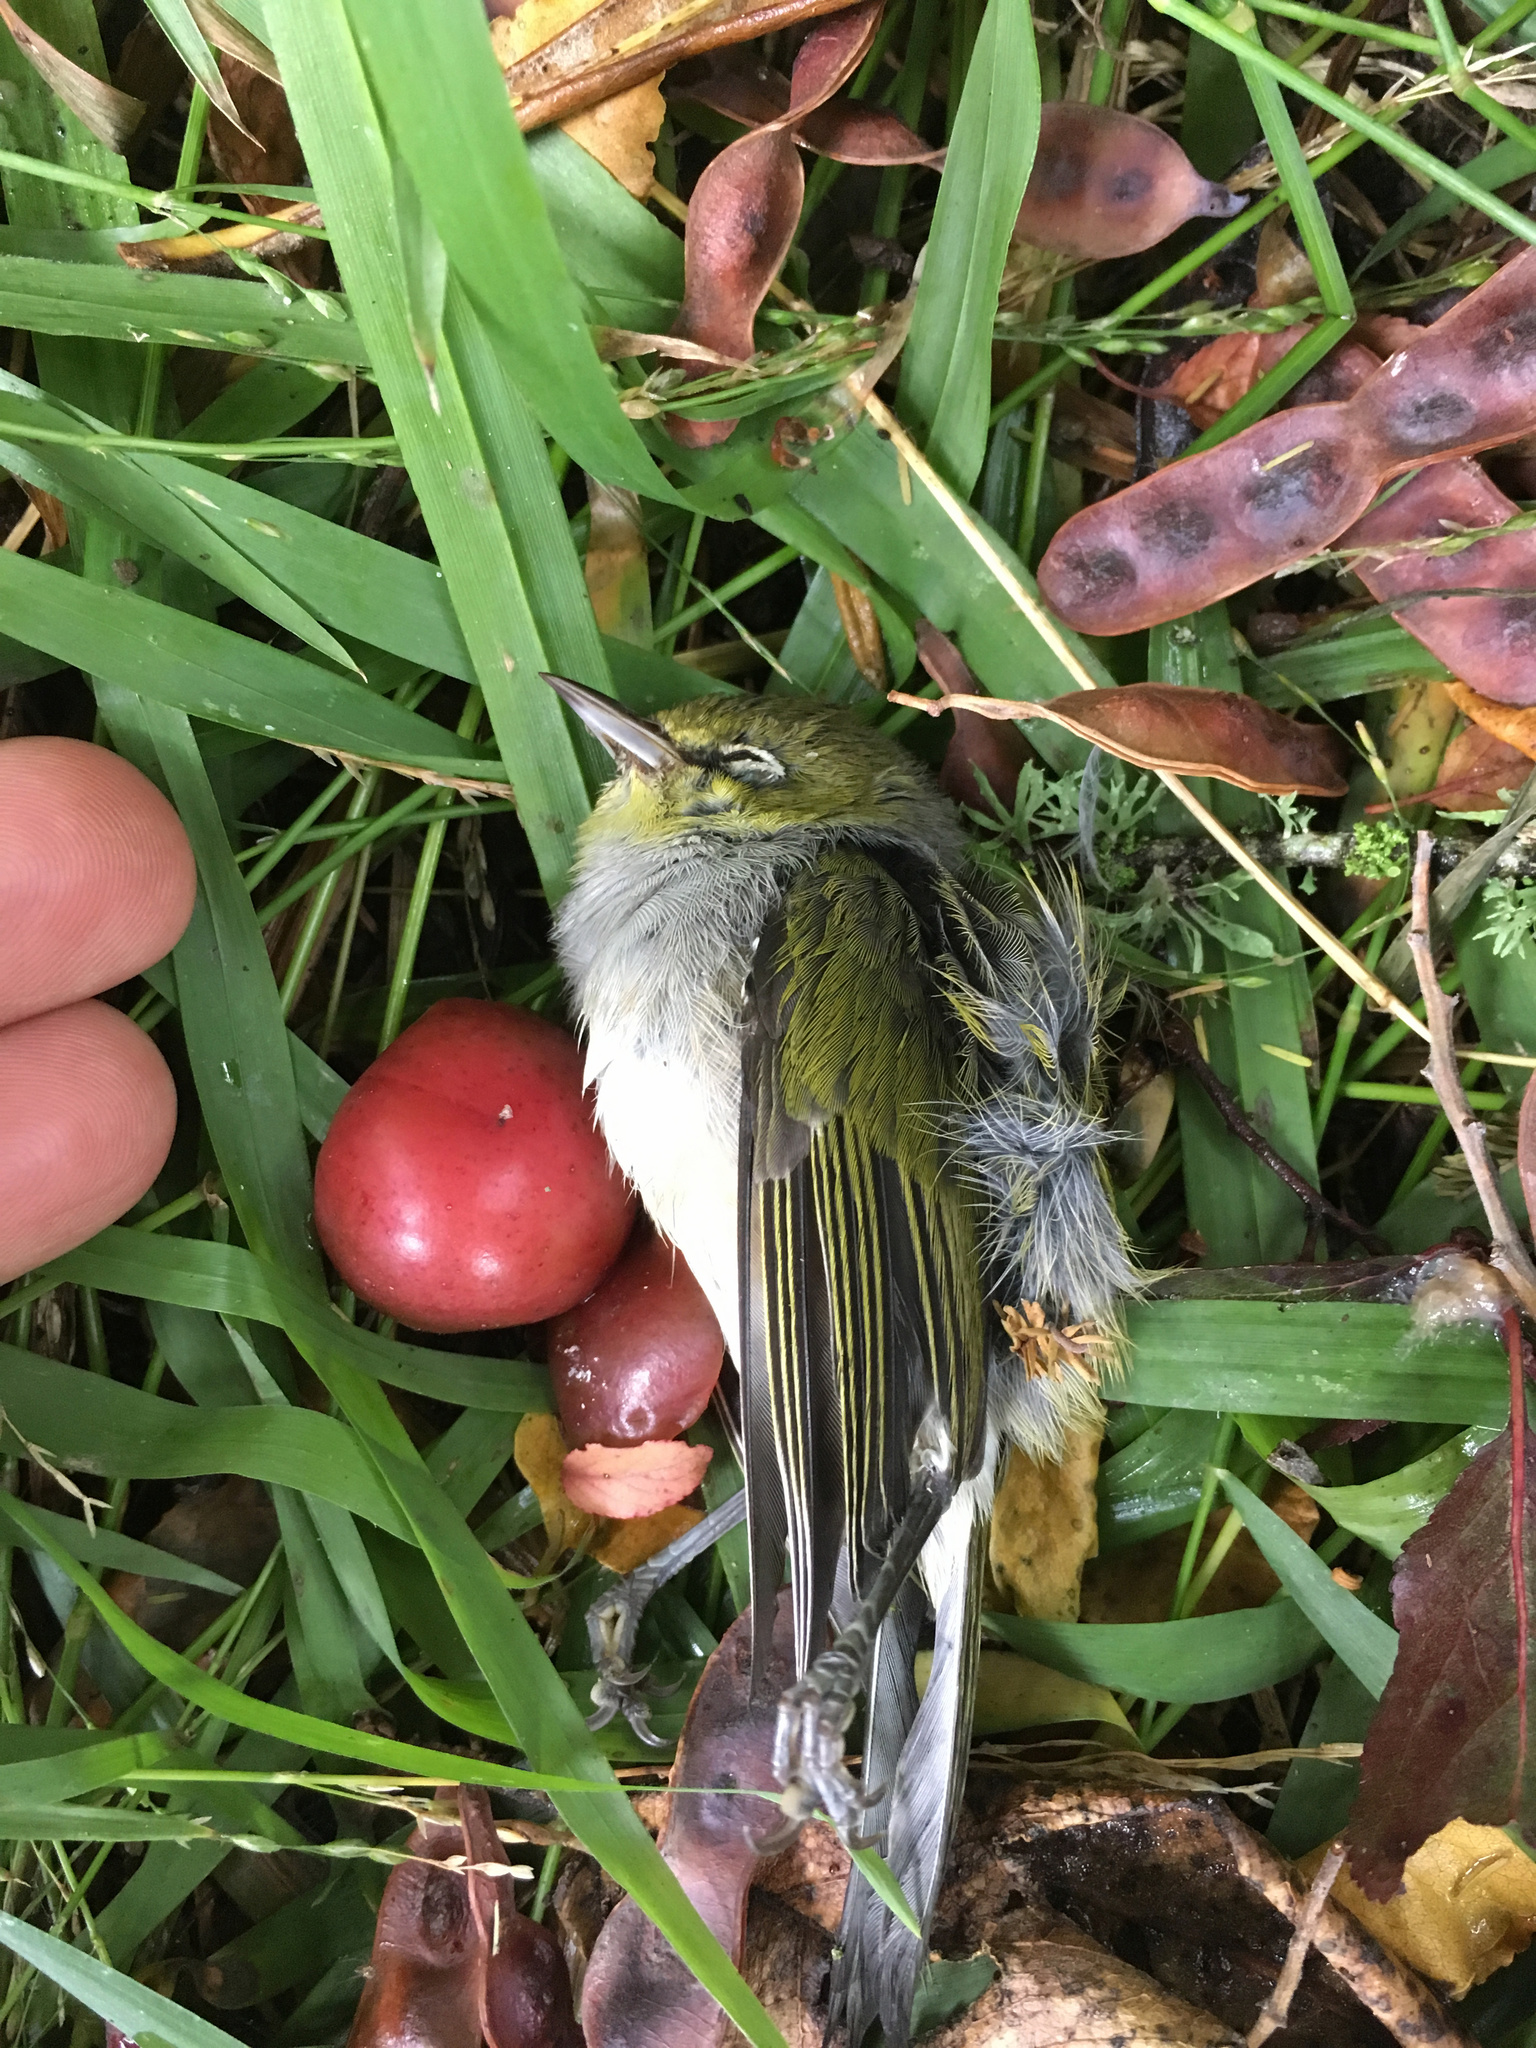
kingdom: Animalia
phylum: Chordata
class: Aves
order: Passeriformes
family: Zosteropidae
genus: Zosterops
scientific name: Zosterops lateralis
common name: Silvereye
